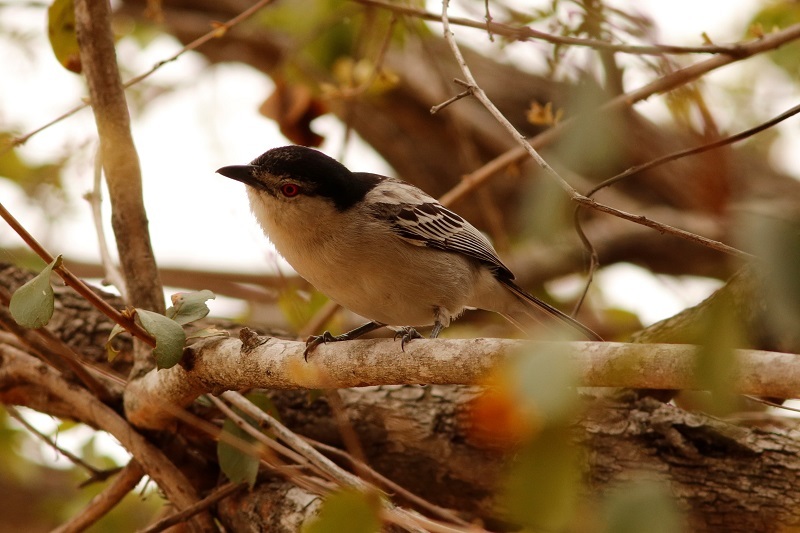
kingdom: Animalia
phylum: Chordata
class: Aves
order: Passeriformes
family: Malaconotidae
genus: Dryoscopus
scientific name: Dryoscopus cubla
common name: Black-backed puffback
